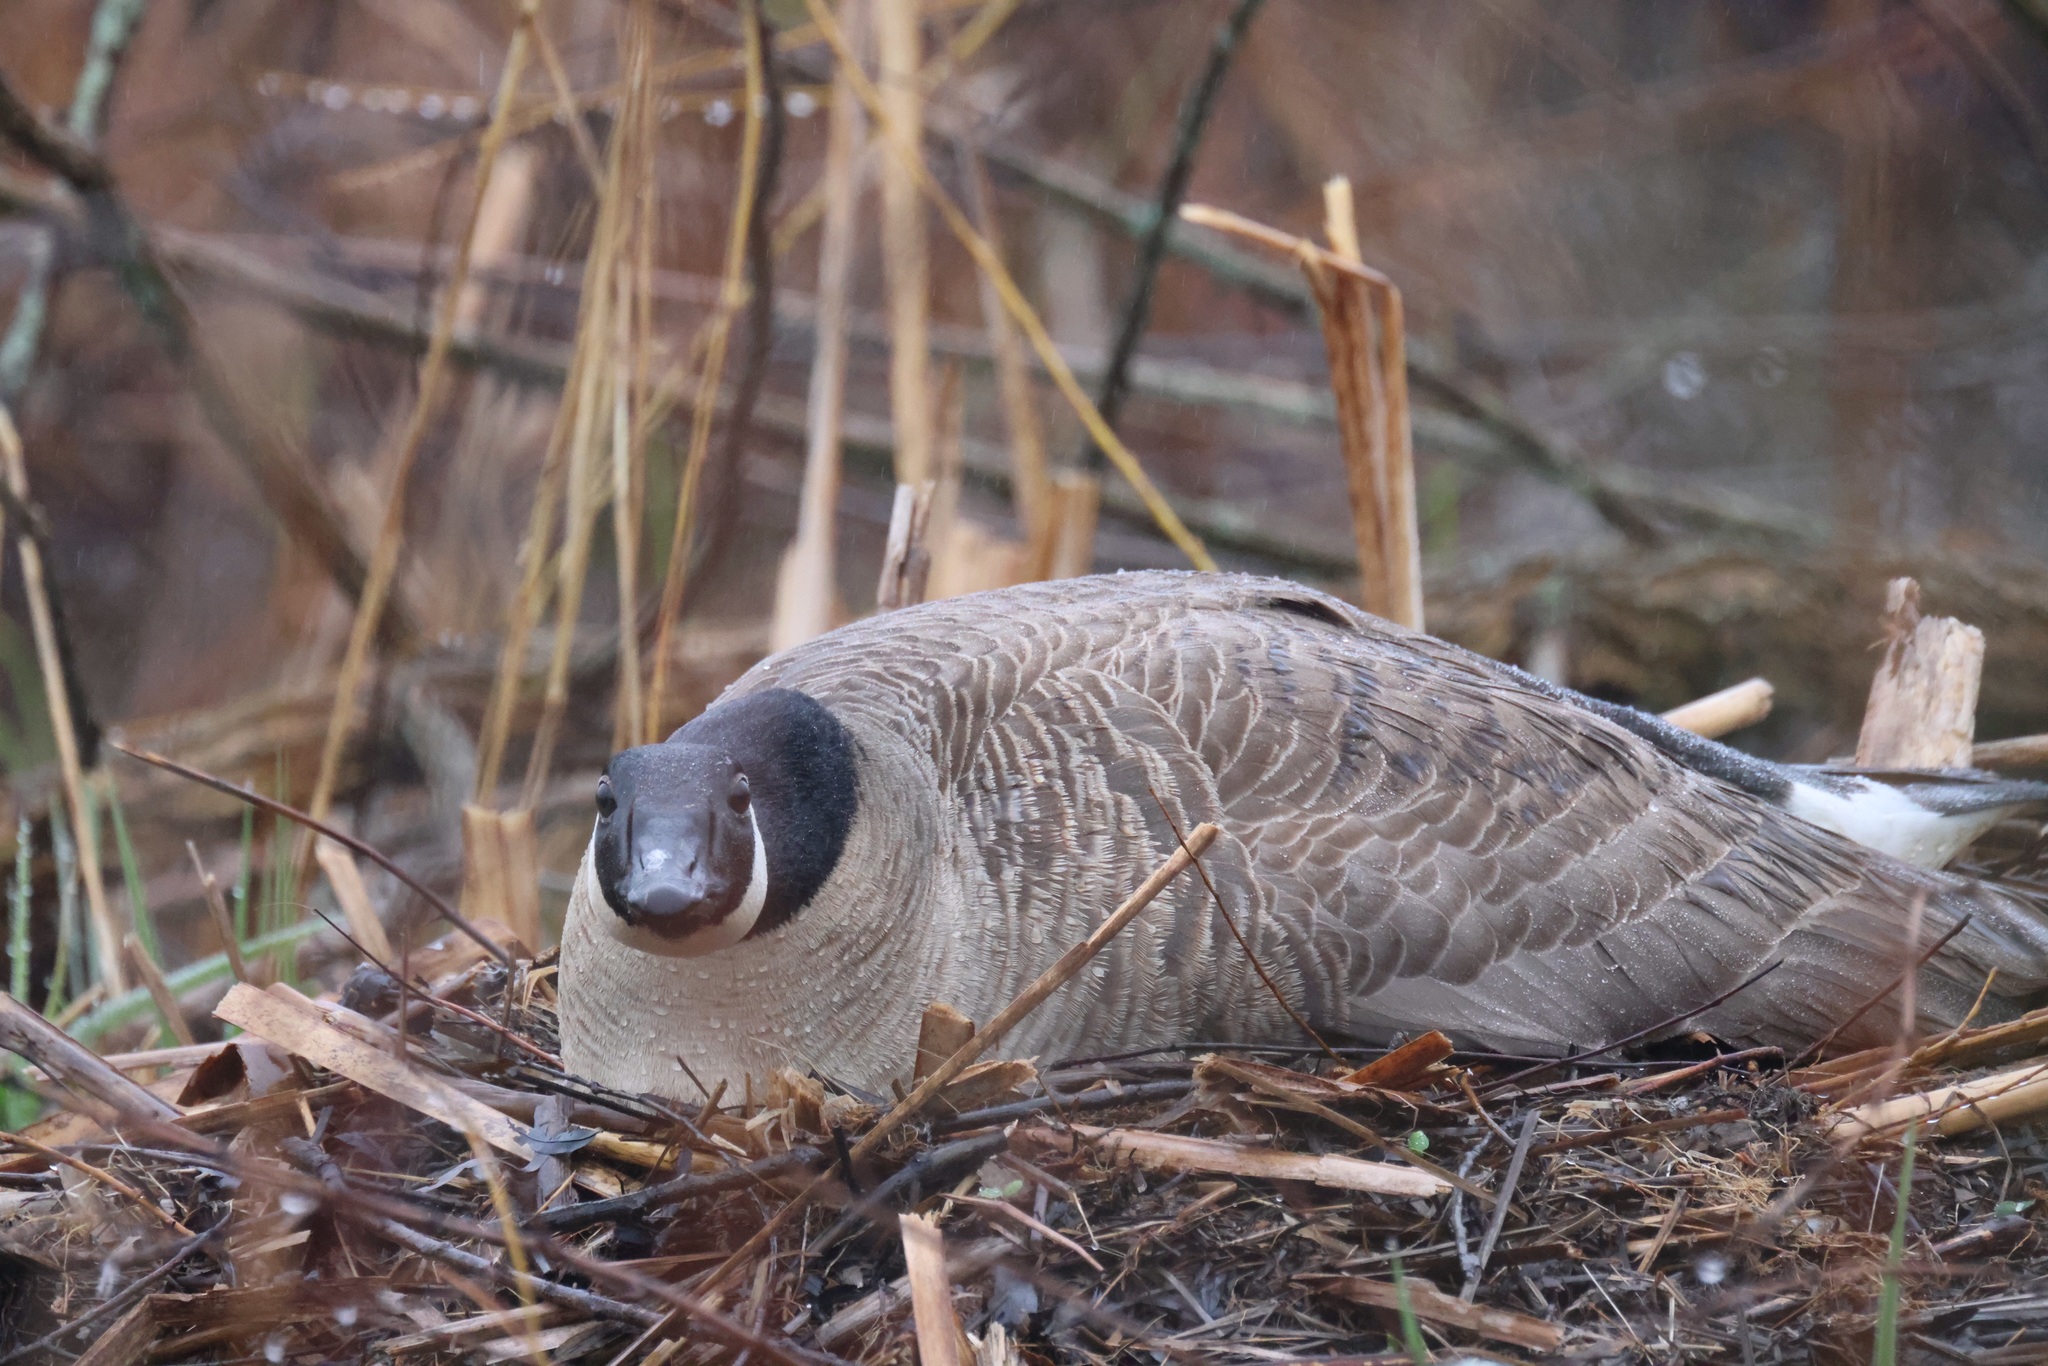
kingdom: Animalia
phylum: Chordata
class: Aves
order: Anseriformes
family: Anatidae
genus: Branta
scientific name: Branta canadensis
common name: Canada goose
